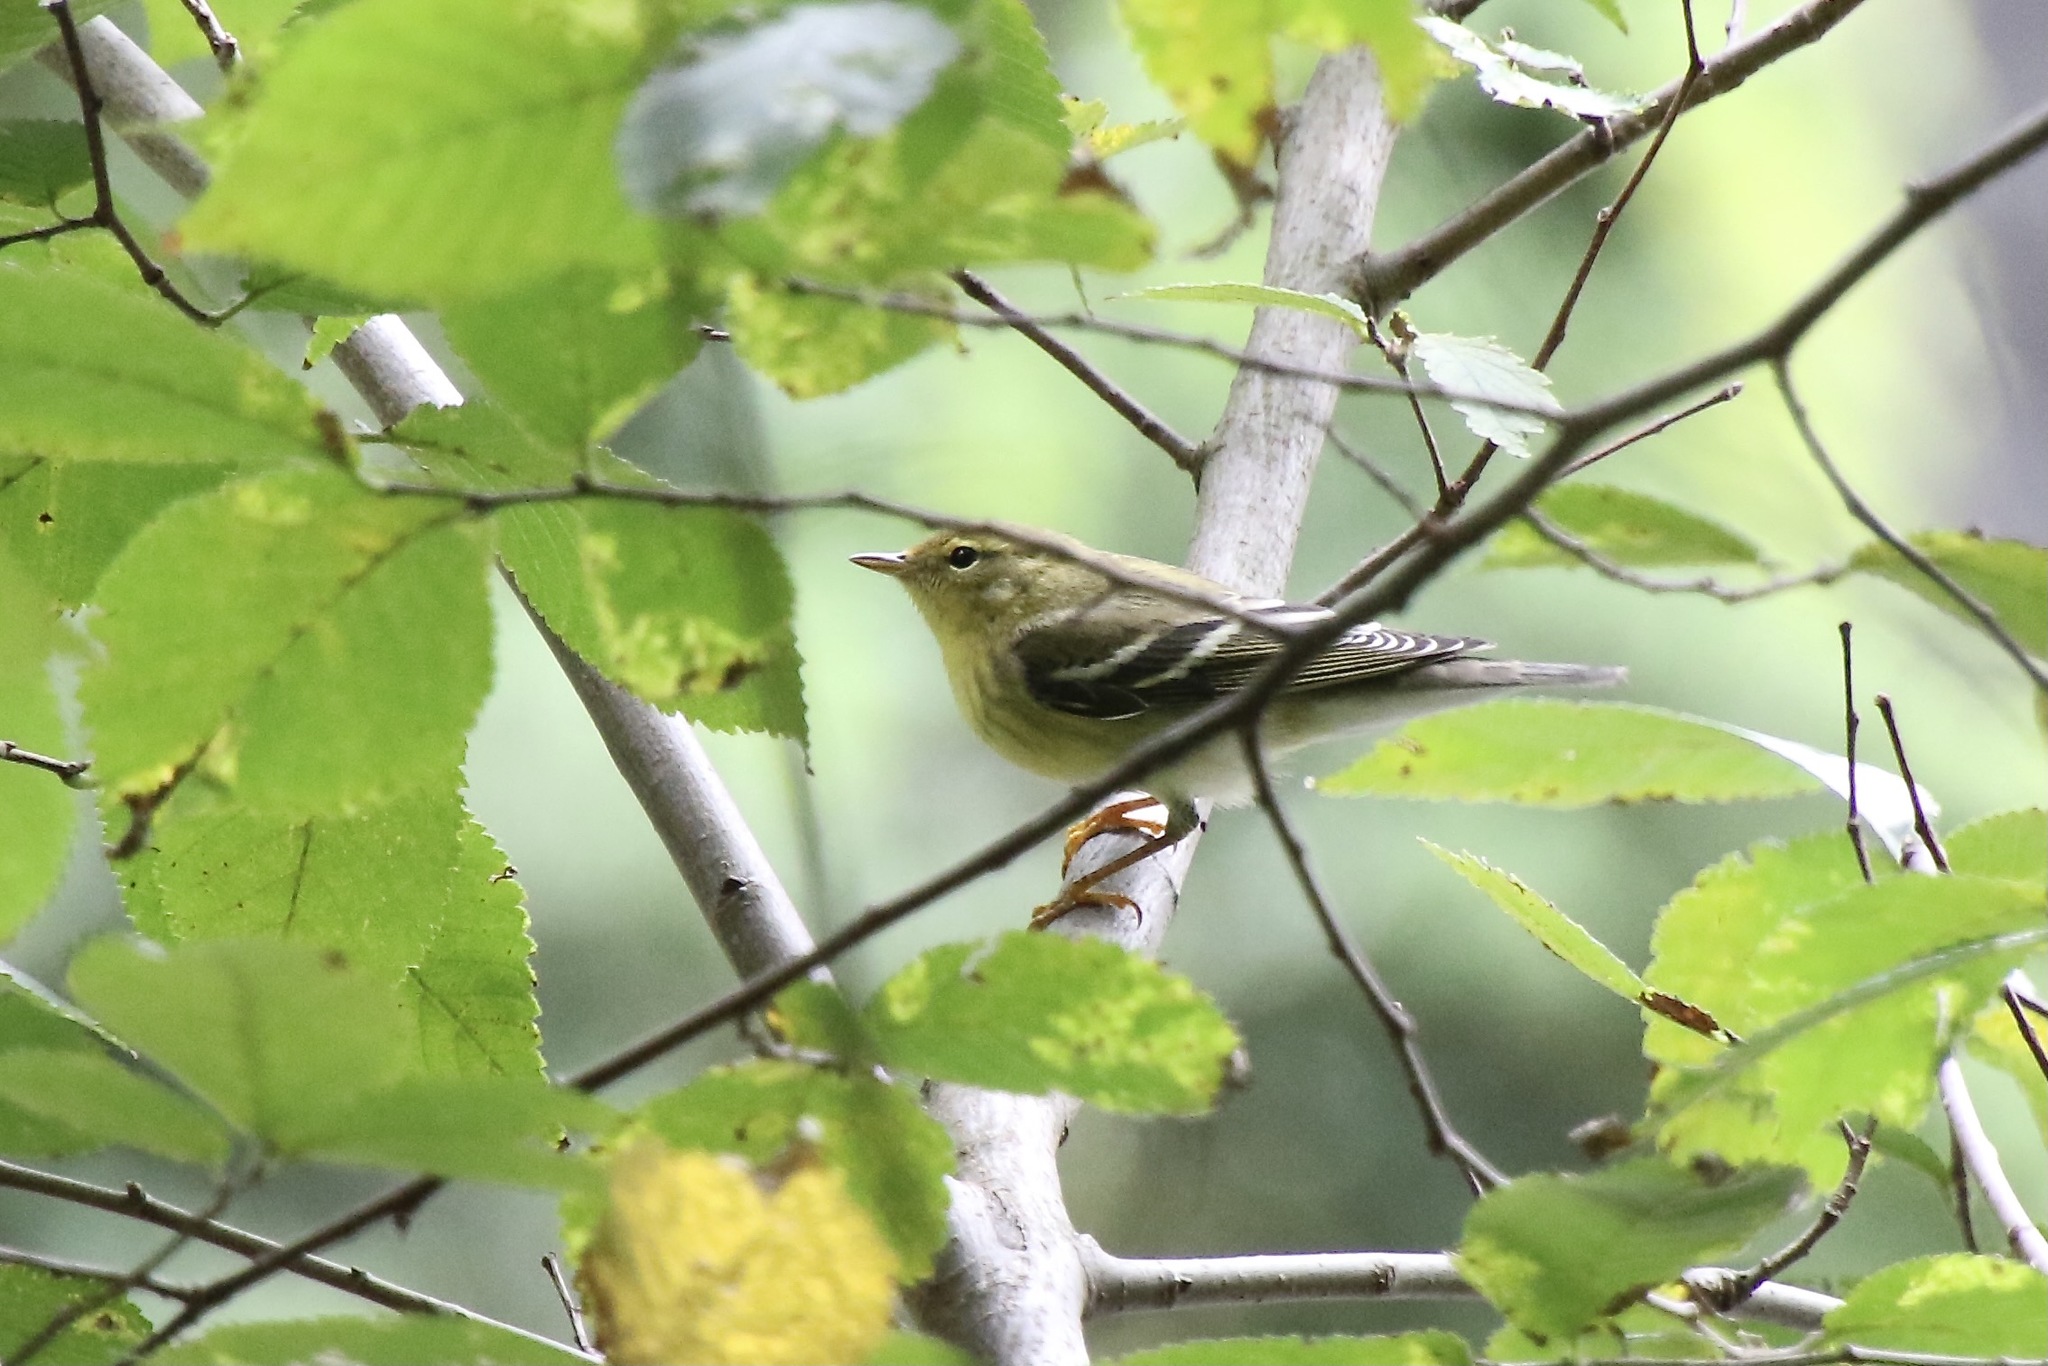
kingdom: Animalia
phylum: Chordata
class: Aves
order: Passeriformes
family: Parulidae
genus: Setophaga
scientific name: Setophaga striata
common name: Blackpoll warbler
